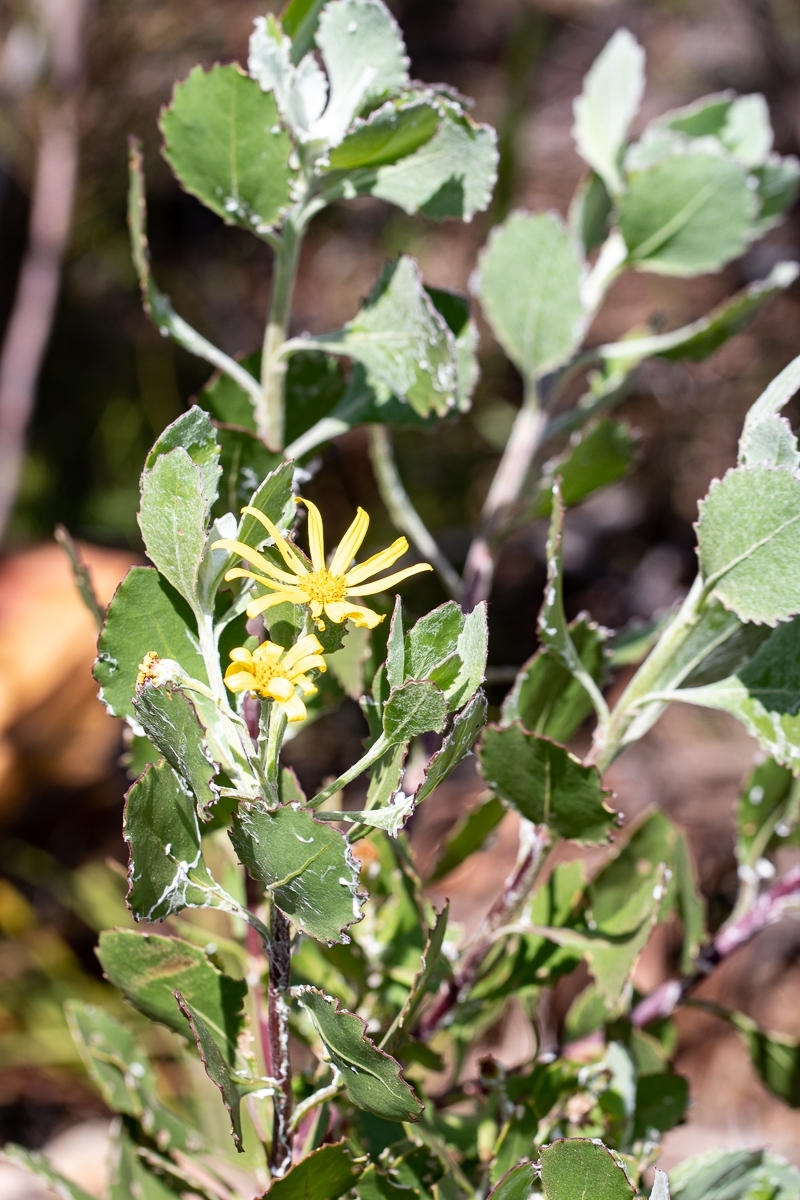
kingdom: Plantae
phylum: Tracheophyta
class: Magnoliopsida
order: Asterales
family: Asteraceae
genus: Osteospermum
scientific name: Osteospermum moniliferum
